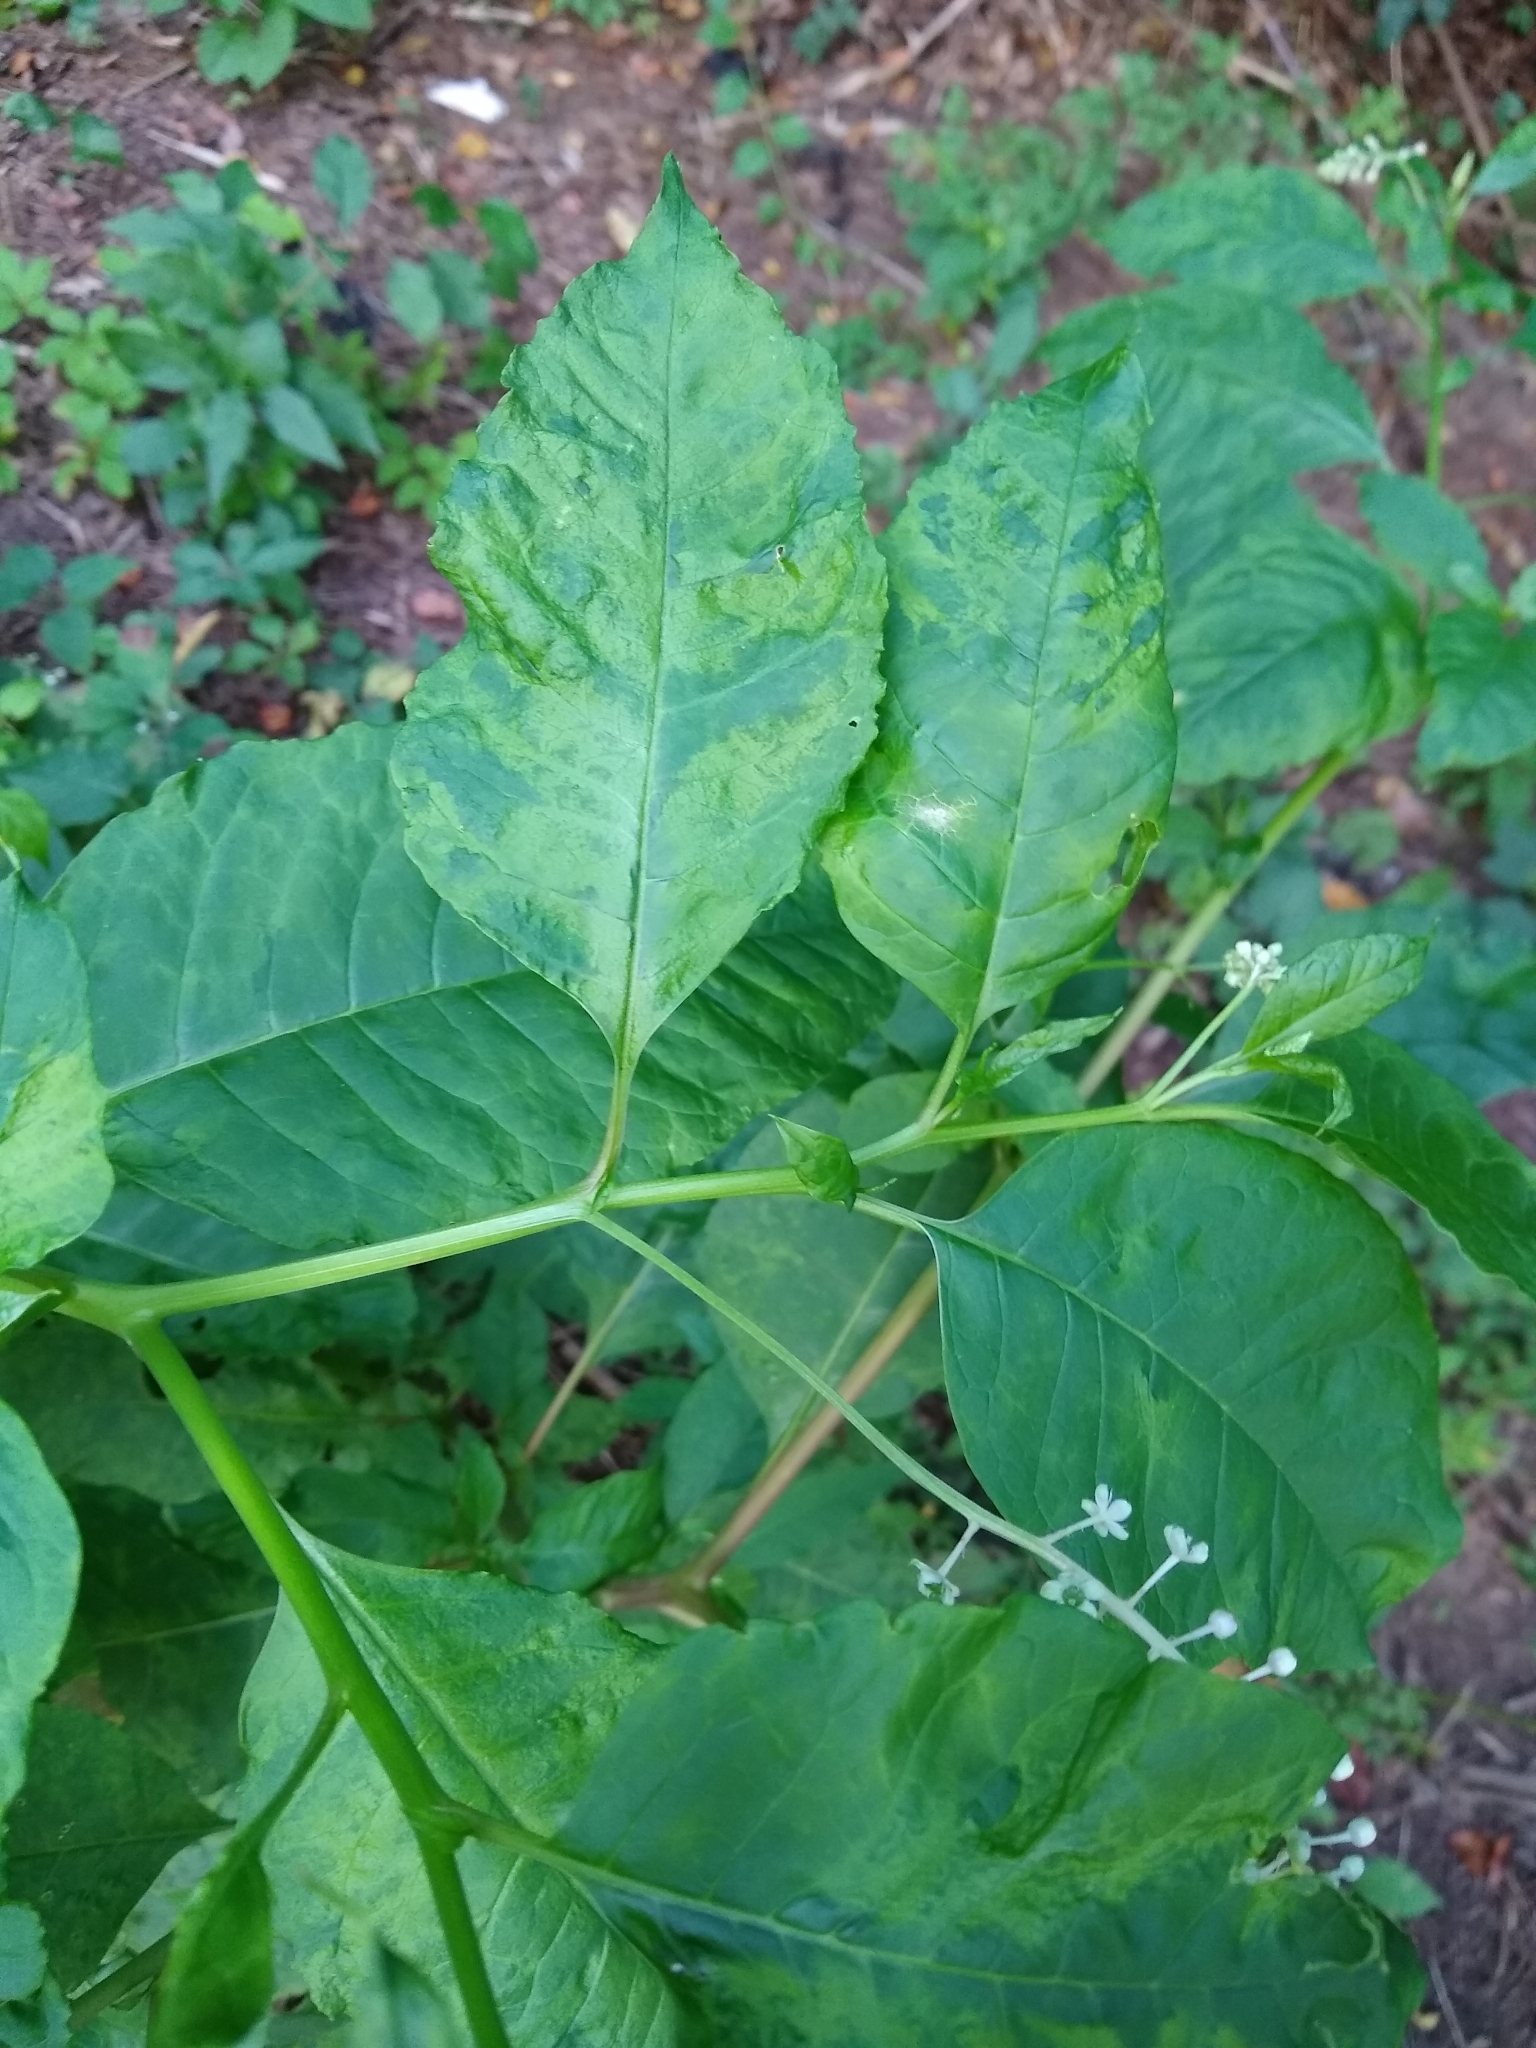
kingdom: Viruses
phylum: Pisuviricota
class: Stelpaviricetes
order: Patatavirales
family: Potyviridae
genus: Potyvirus
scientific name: Potyvirus Pokeweed mosaic virus
